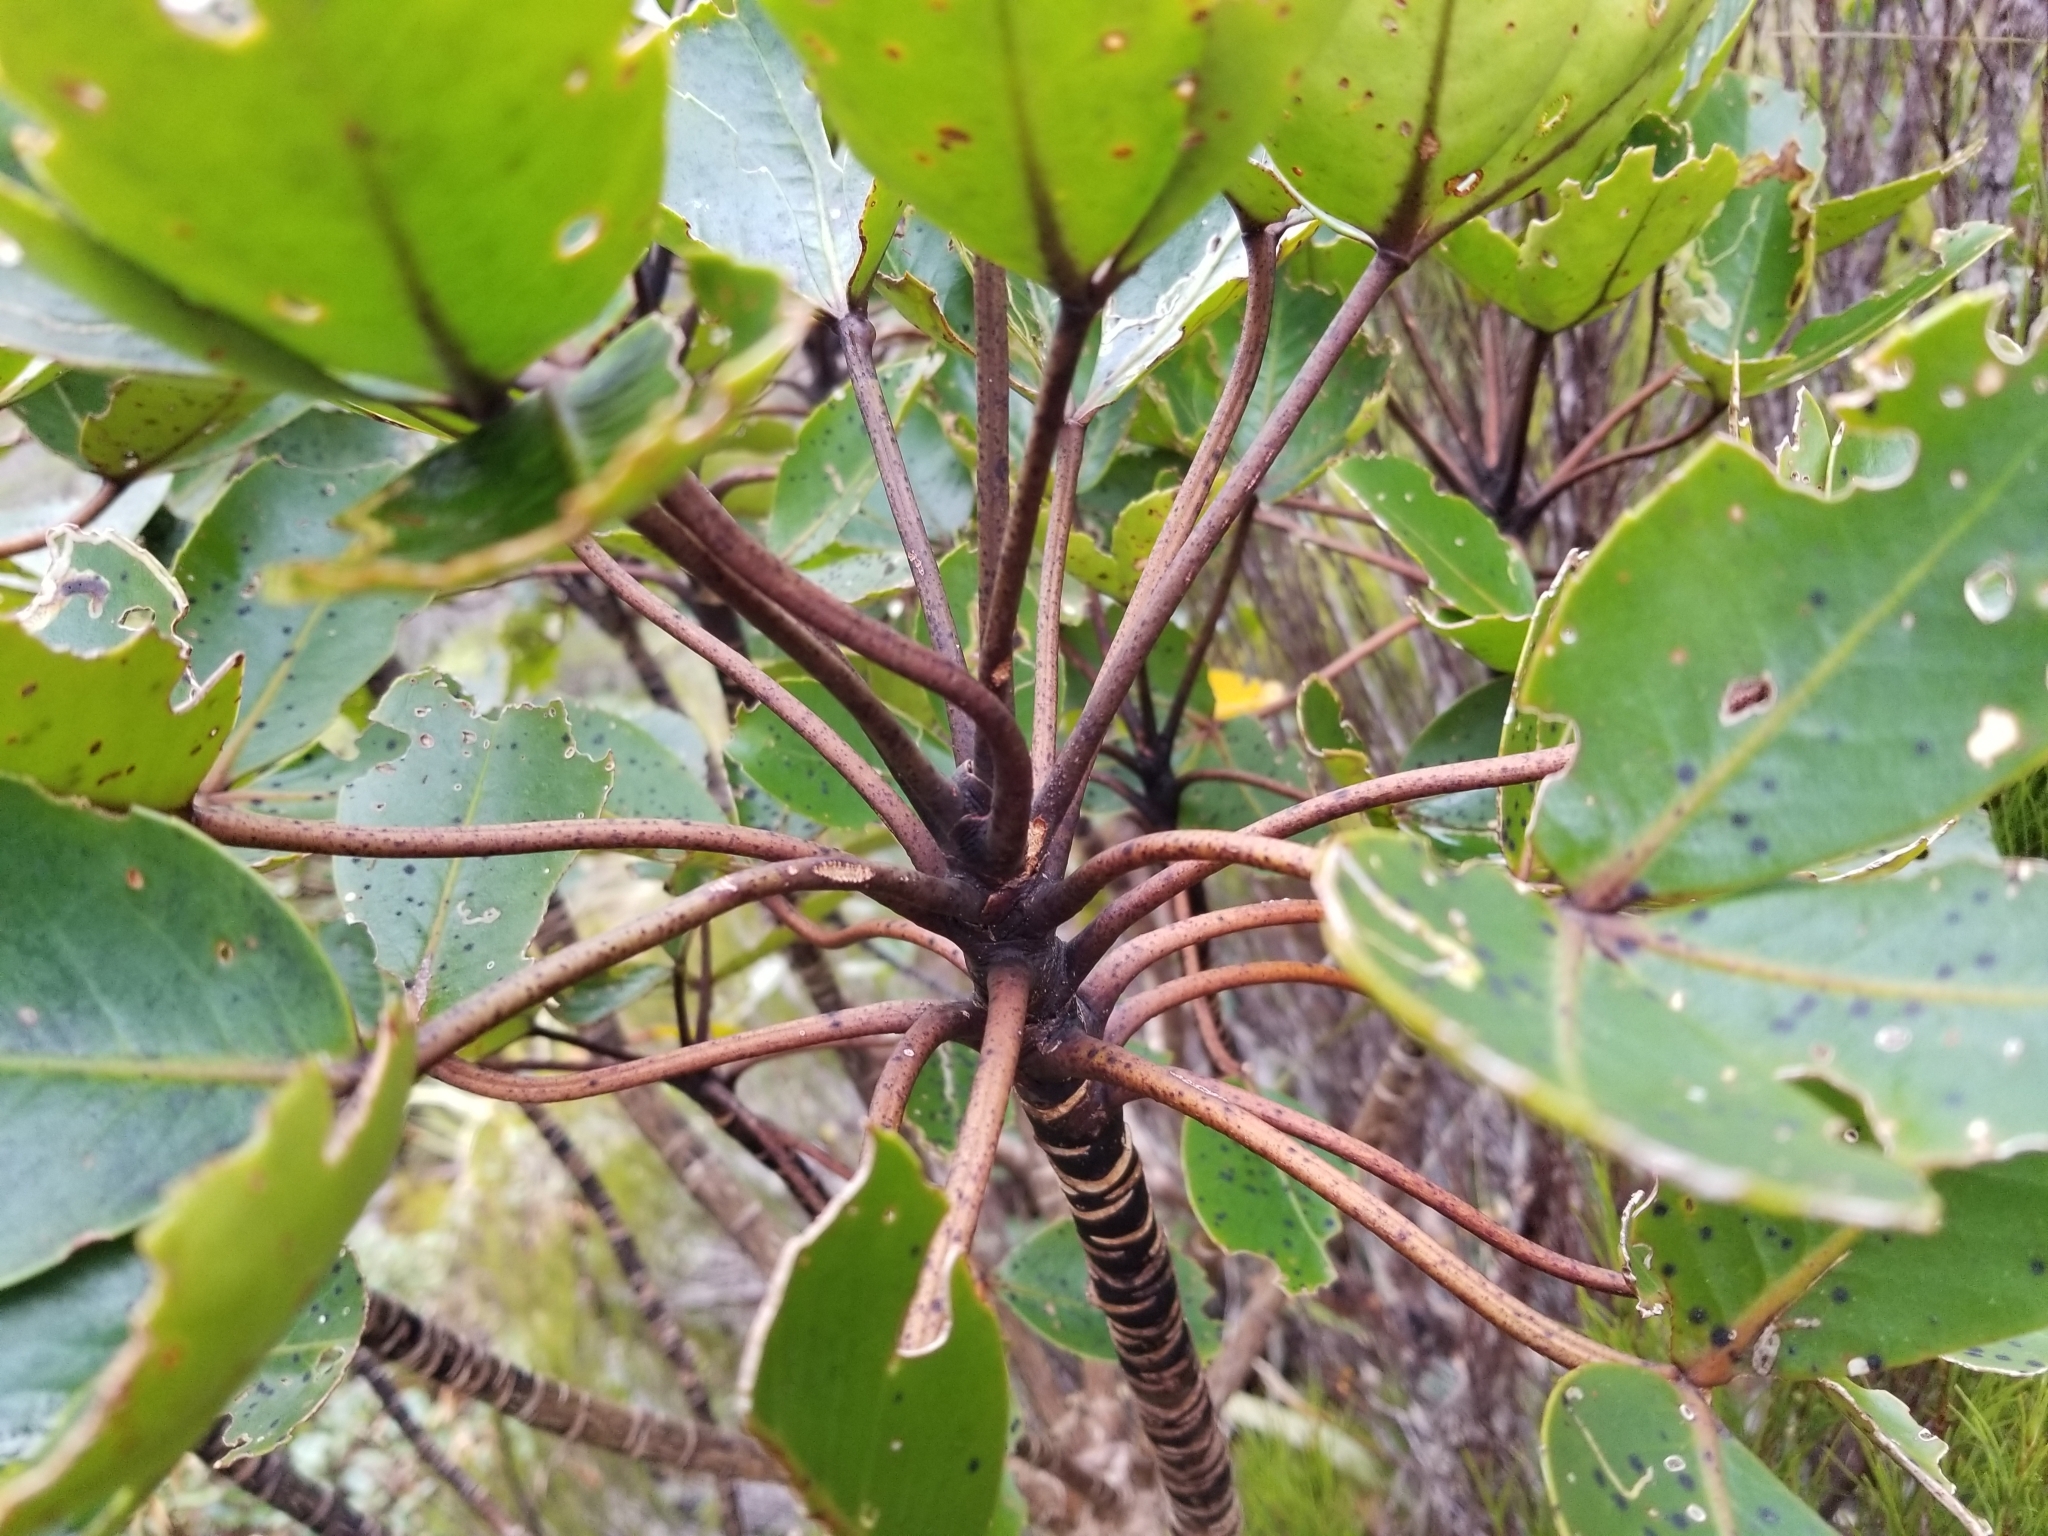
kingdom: Plantae
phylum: Tracheophyta
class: Magnoliopsida
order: Apiales
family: Araliaceae
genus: Neopanax
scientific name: Neopanax colensoi
